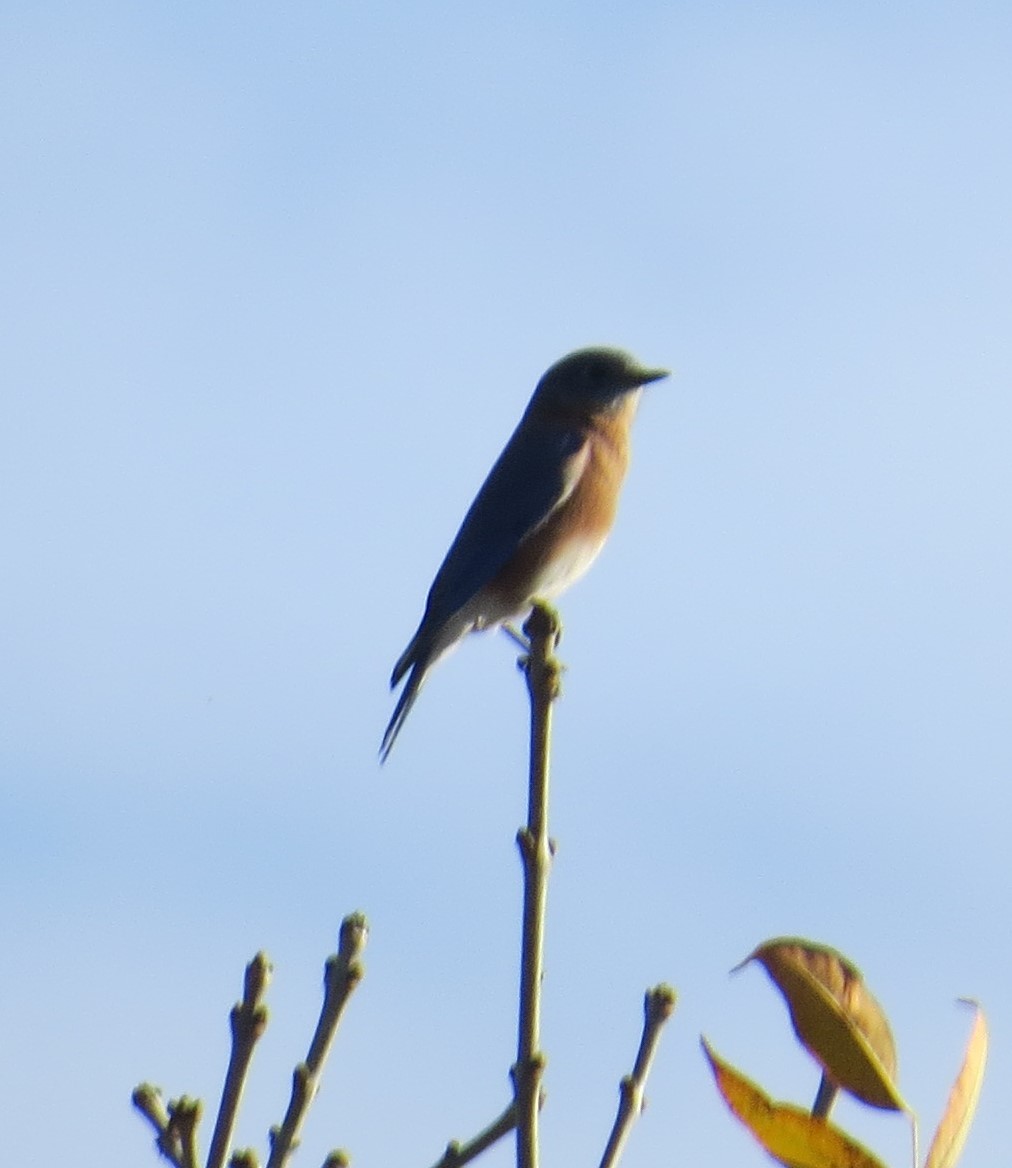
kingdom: Animalia
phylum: Chordata
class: Aves
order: Passeriformes
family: Turdidae
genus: Sialia
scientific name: Sialia sialis
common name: Eastern bluebird
